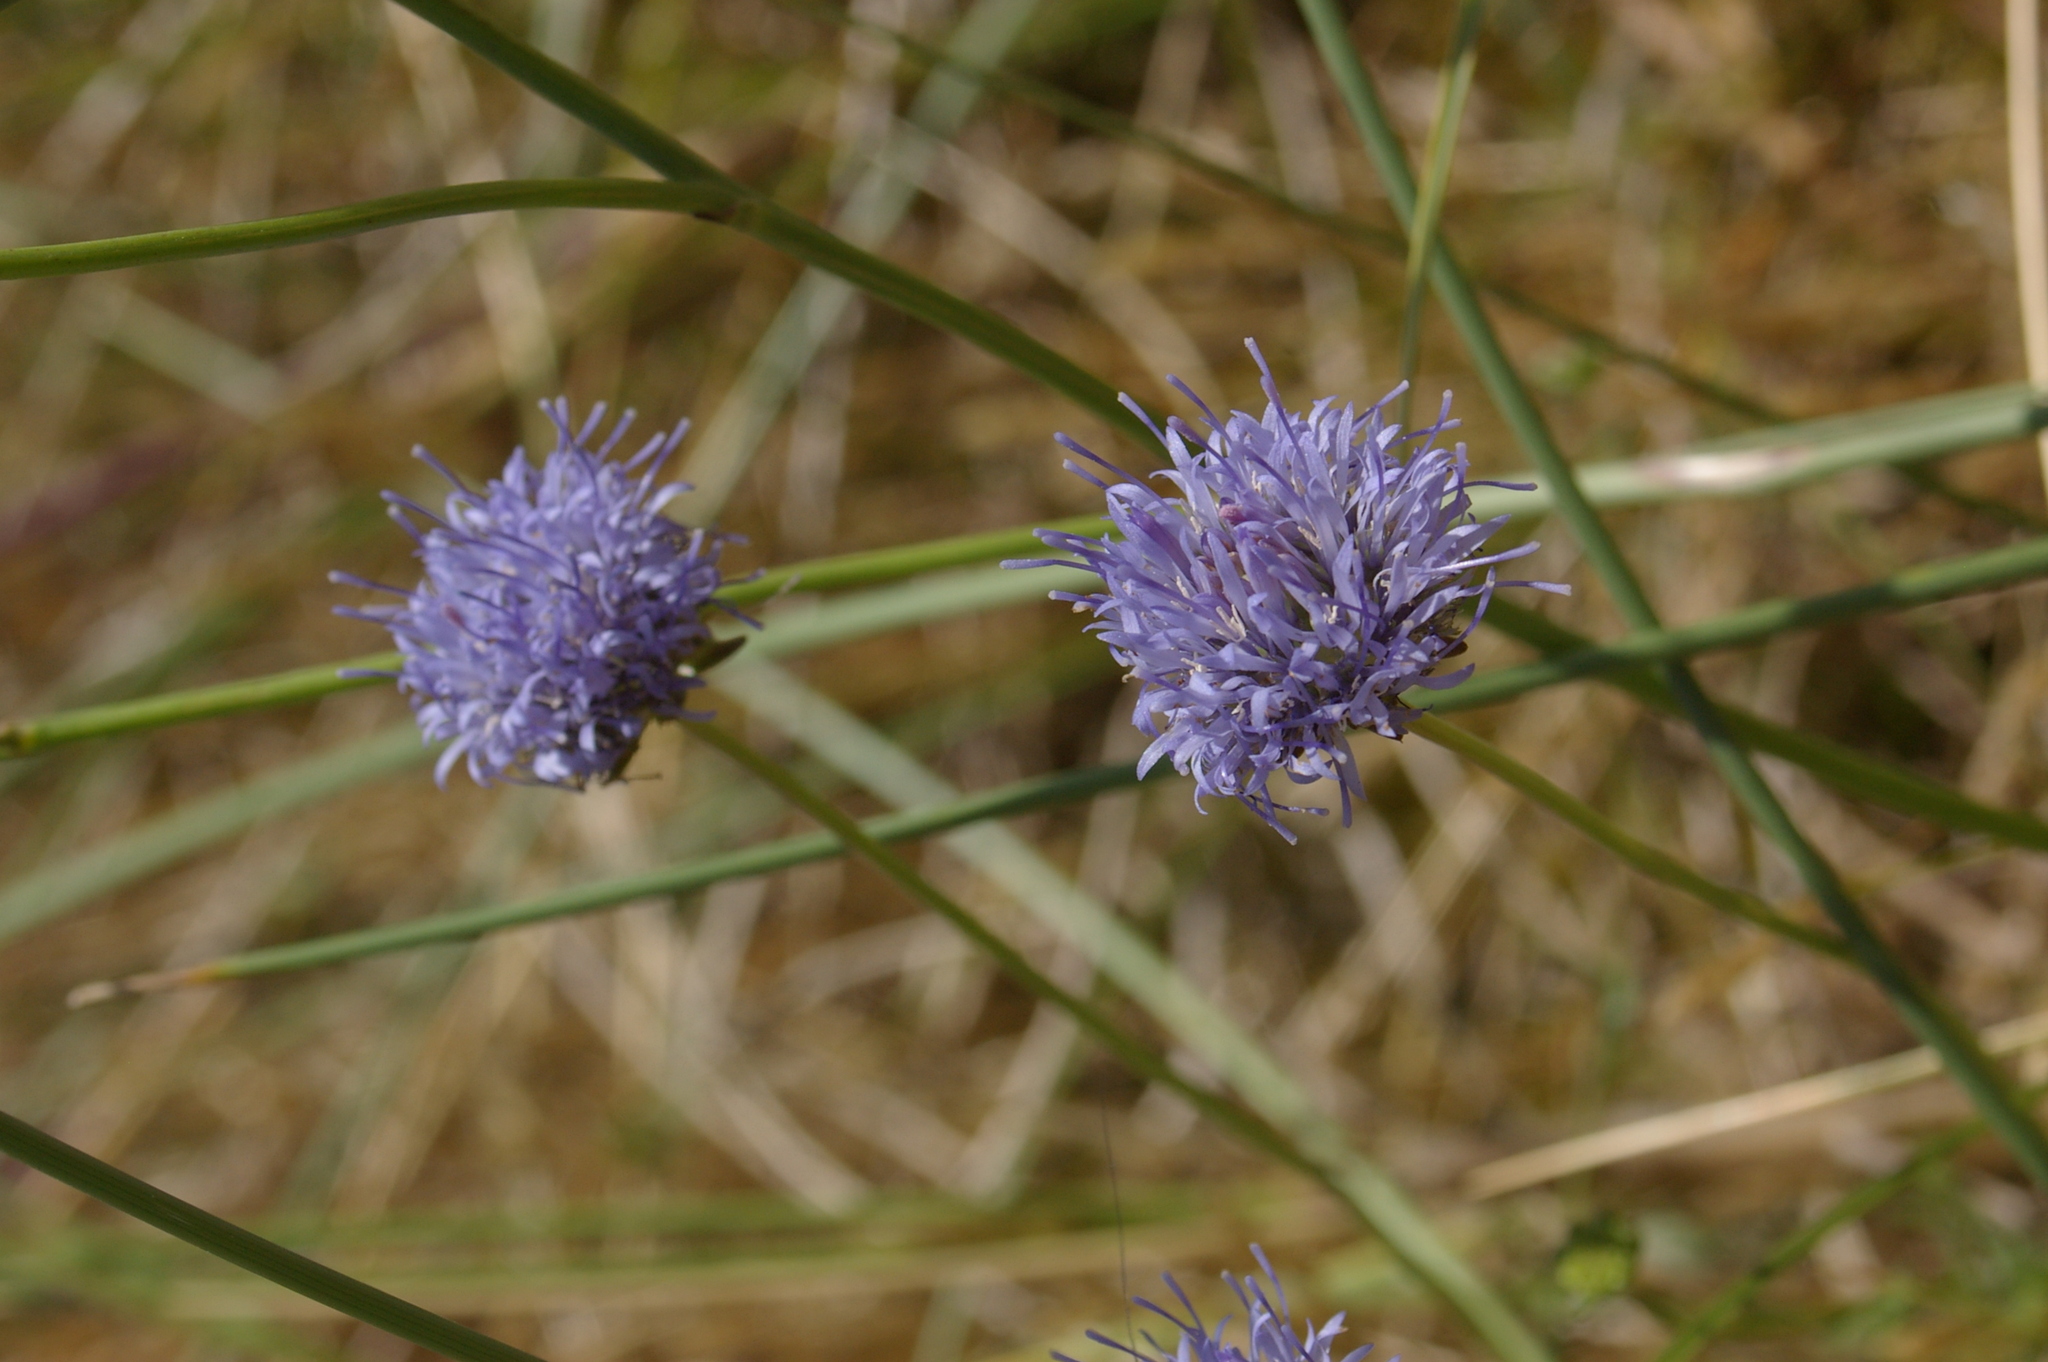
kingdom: Plantae
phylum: Tracheophyta
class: Magnoliopsida
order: Asterales
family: Campanulaceae
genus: Jasione
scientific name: Jasione montana
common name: Sheep's-bit
